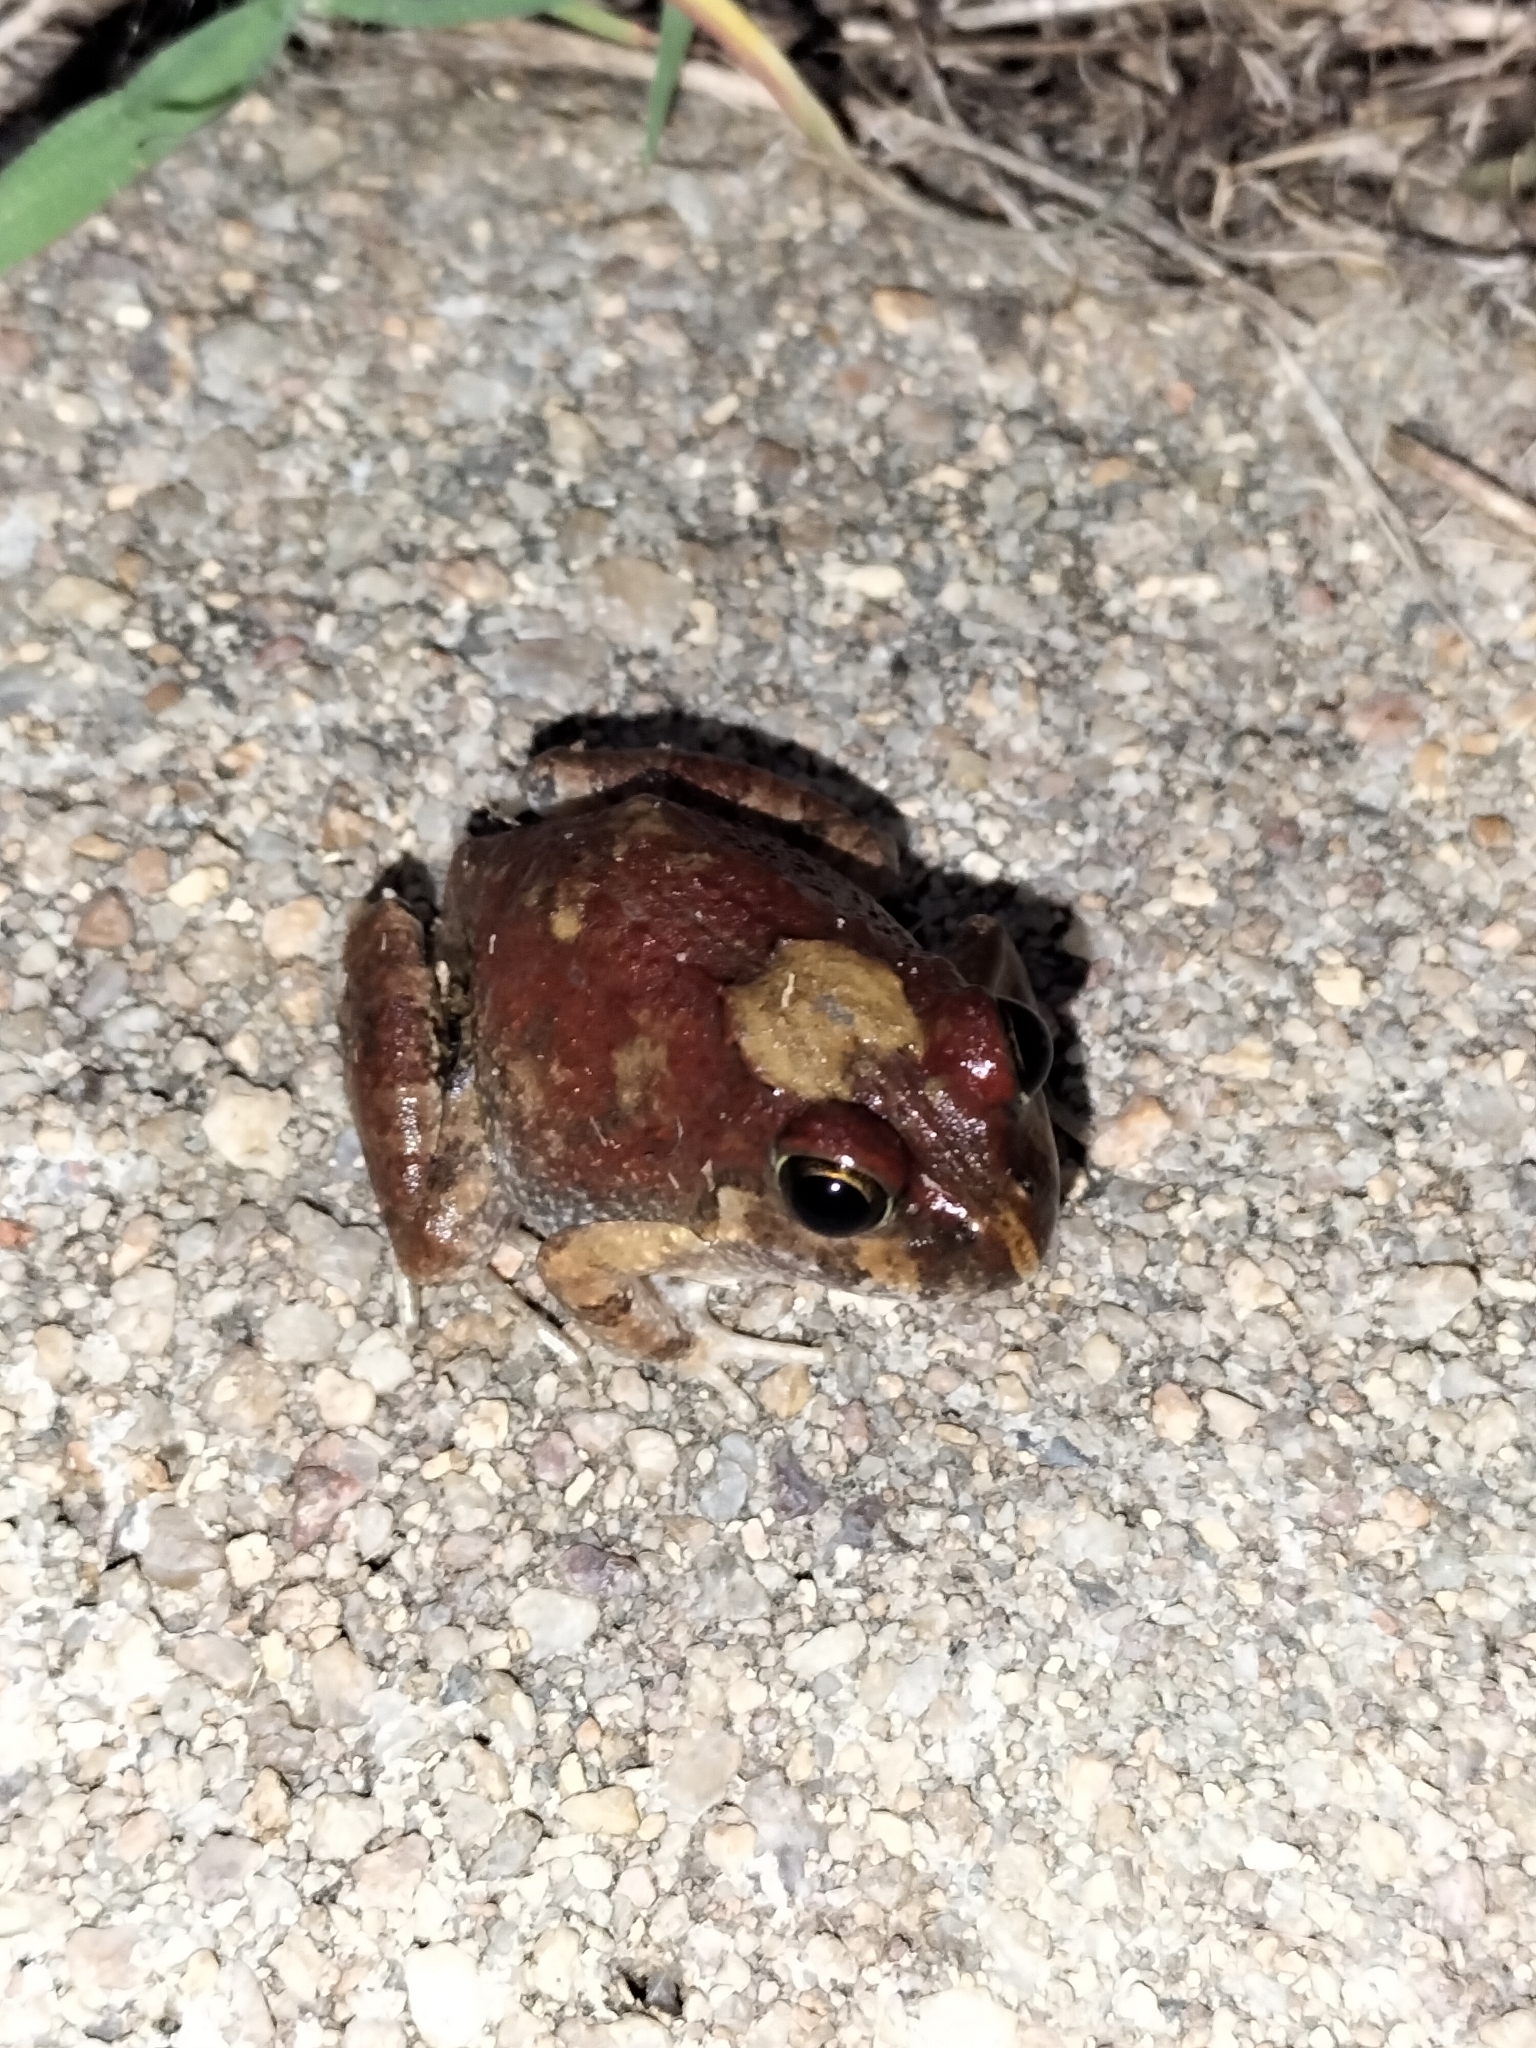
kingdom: Animalia
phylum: Chordata
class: Amphibia
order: Anura
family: Limnodynastidae
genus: Platyplectrum
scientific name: Platyplectrum ornatum
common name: Ornate burrowing frog
